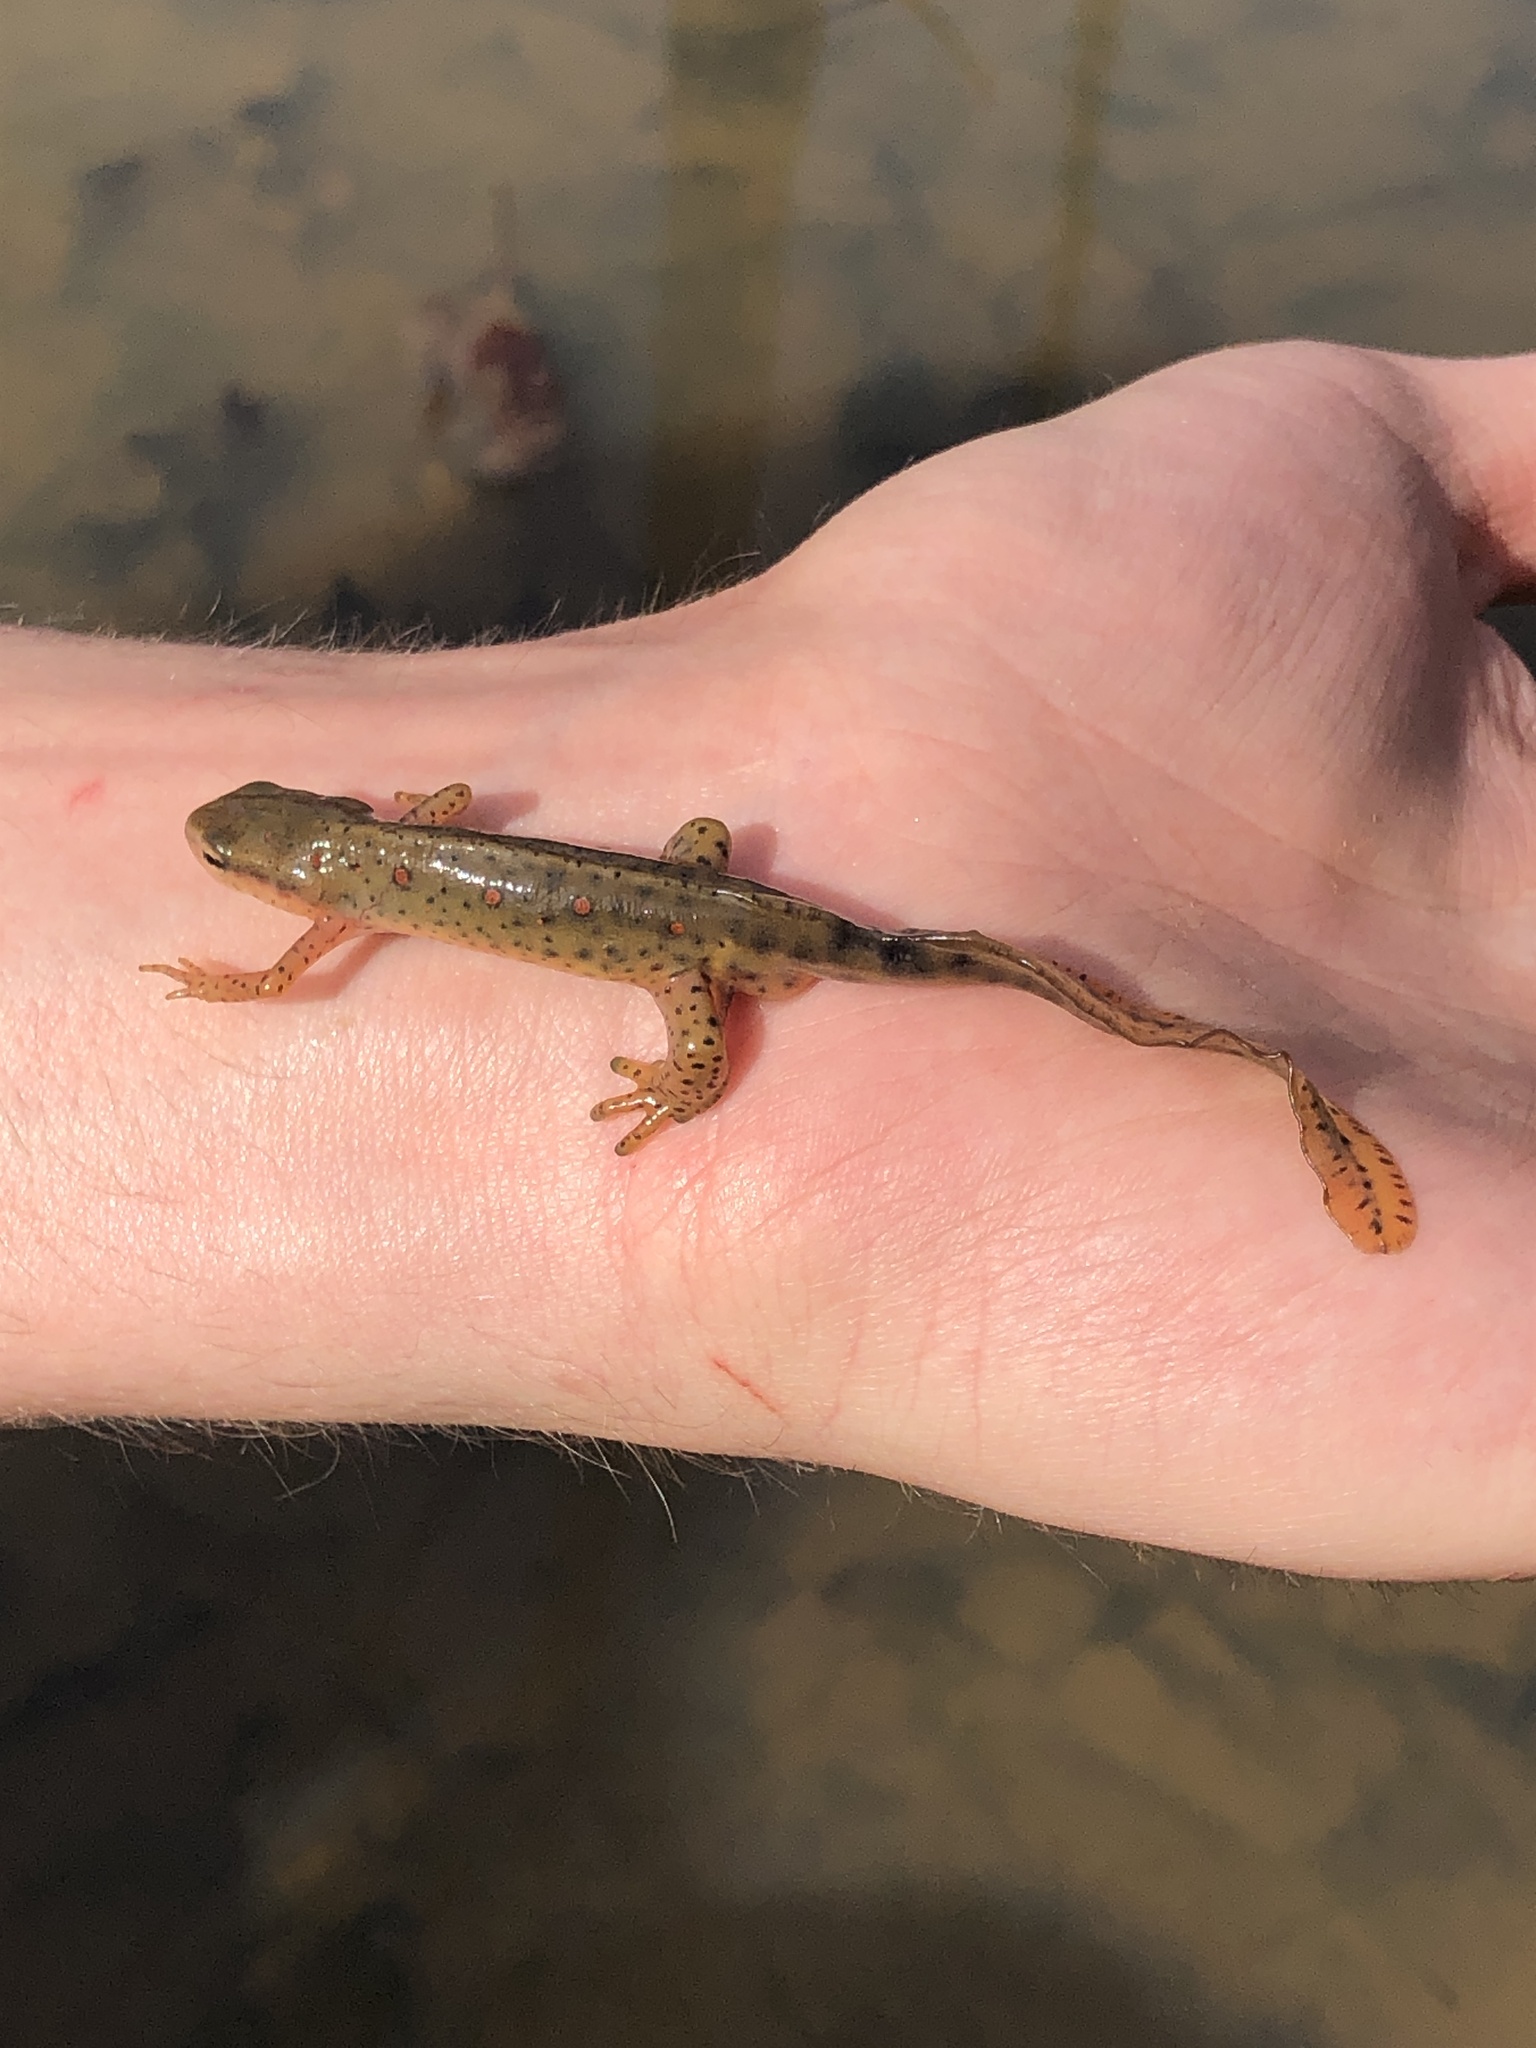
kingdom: Animalia
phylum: Chordata
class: Amphibia
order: Caudata
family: Salamandridae
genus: Notophthalmus
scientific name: Notophthalmus viridescens
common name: Eastern newt
